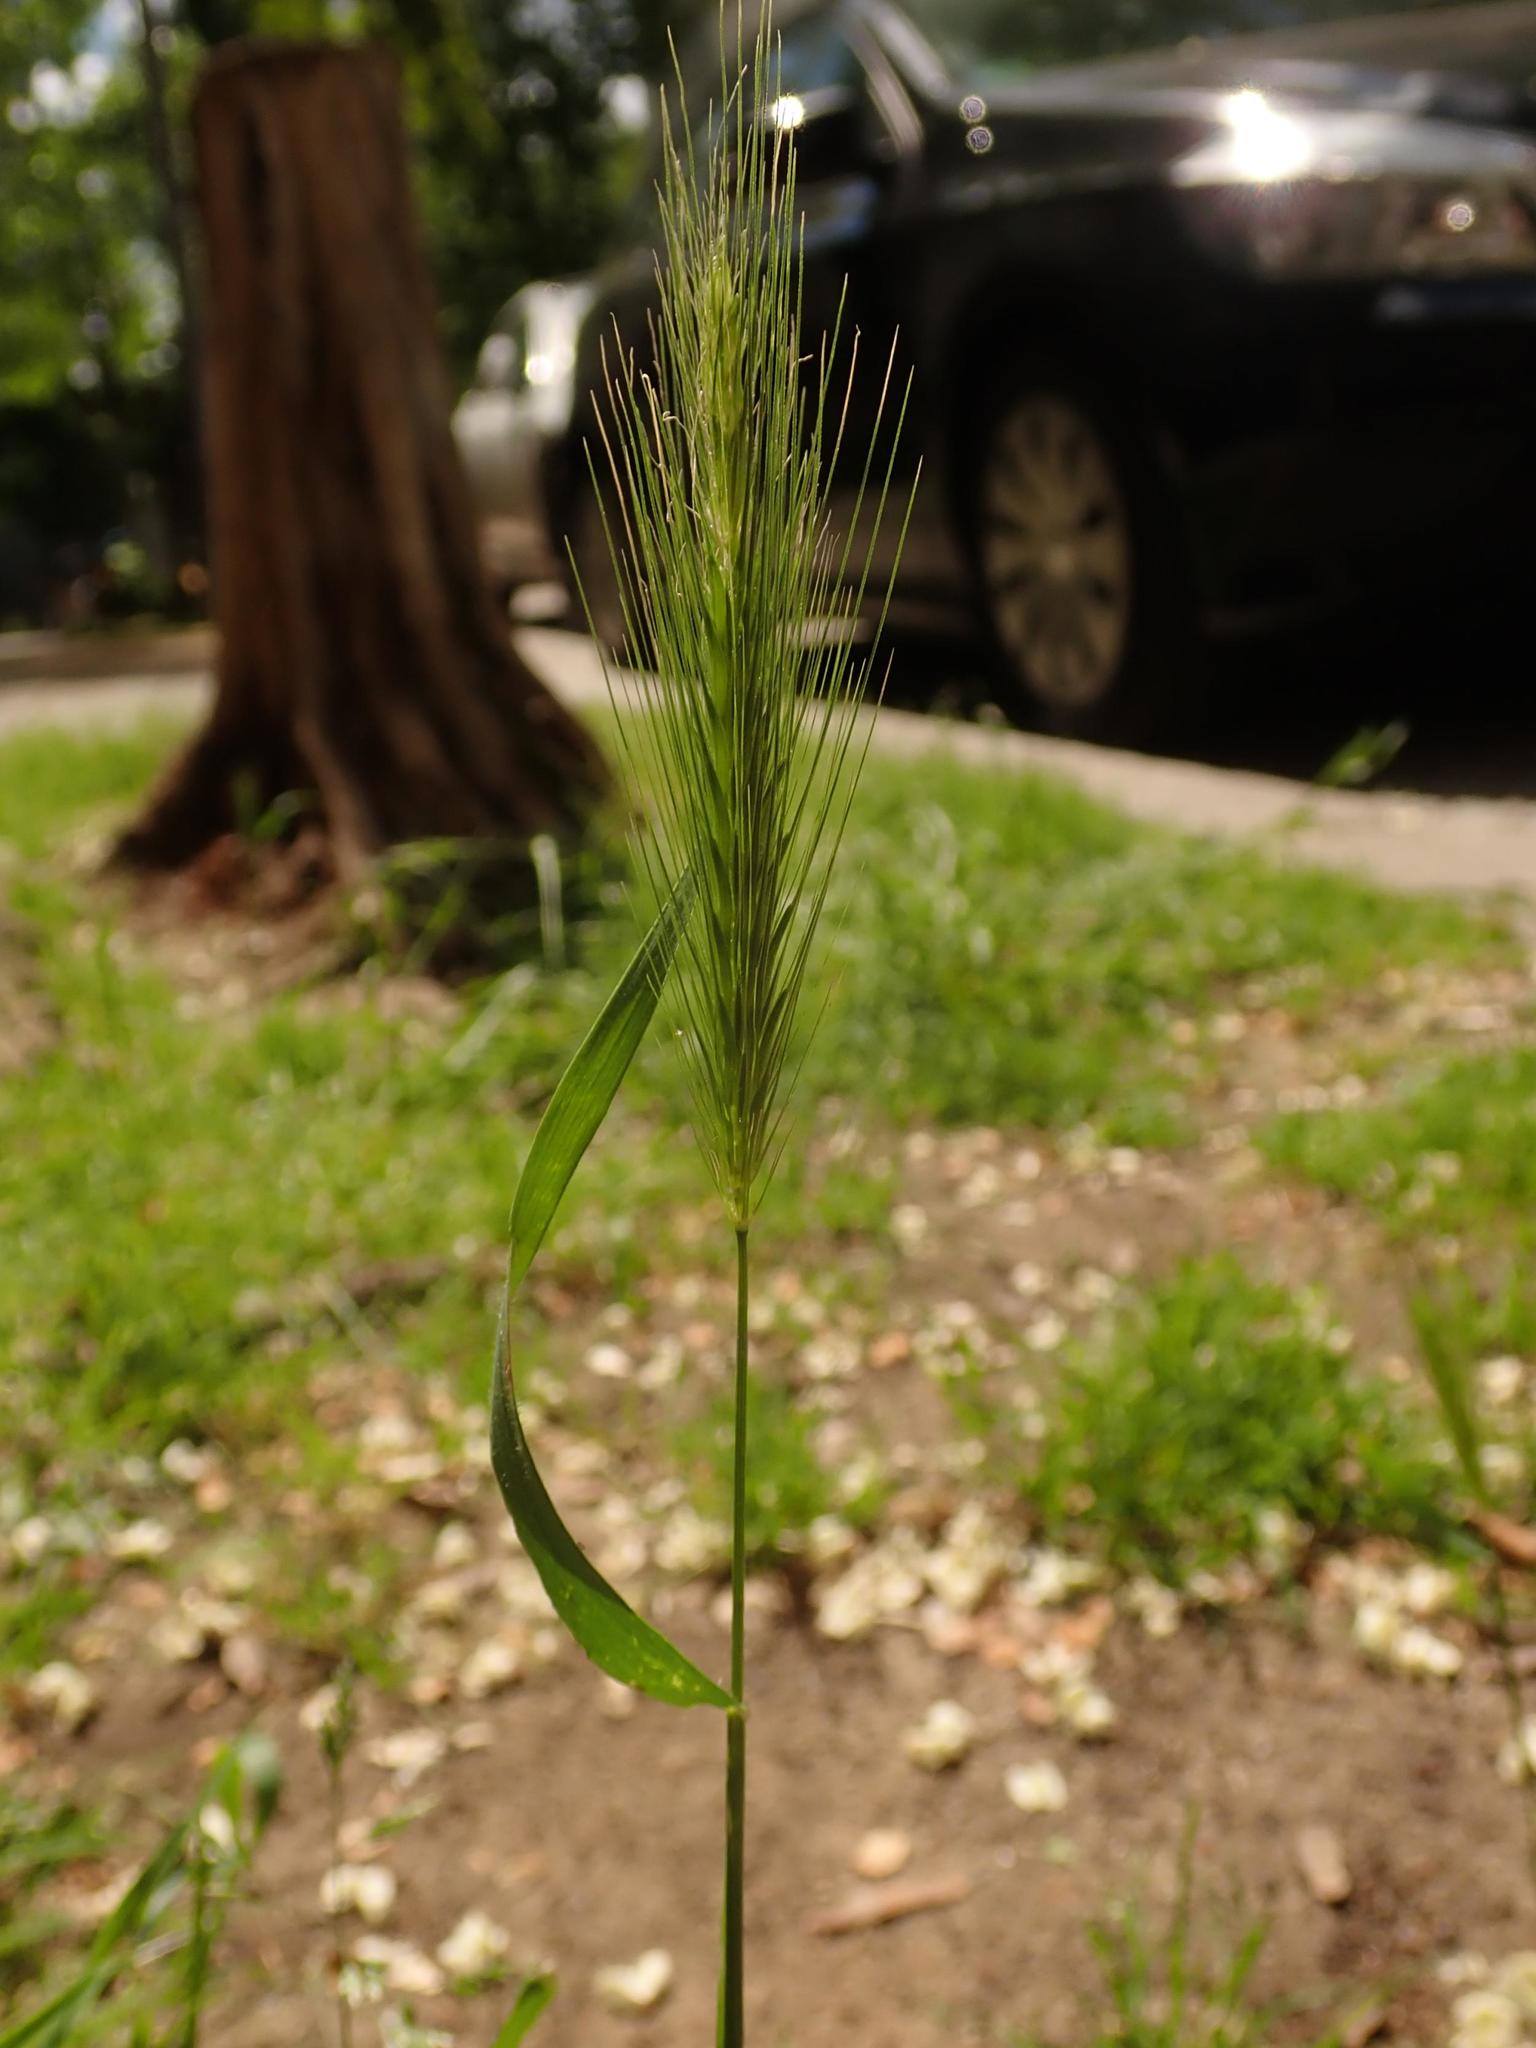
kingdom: Plantae
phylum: Tracheophyta
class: Liliopsida
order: Poales
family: Poaceae
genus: Hordeum
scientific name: Hordeum murinum
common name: Wall barley
